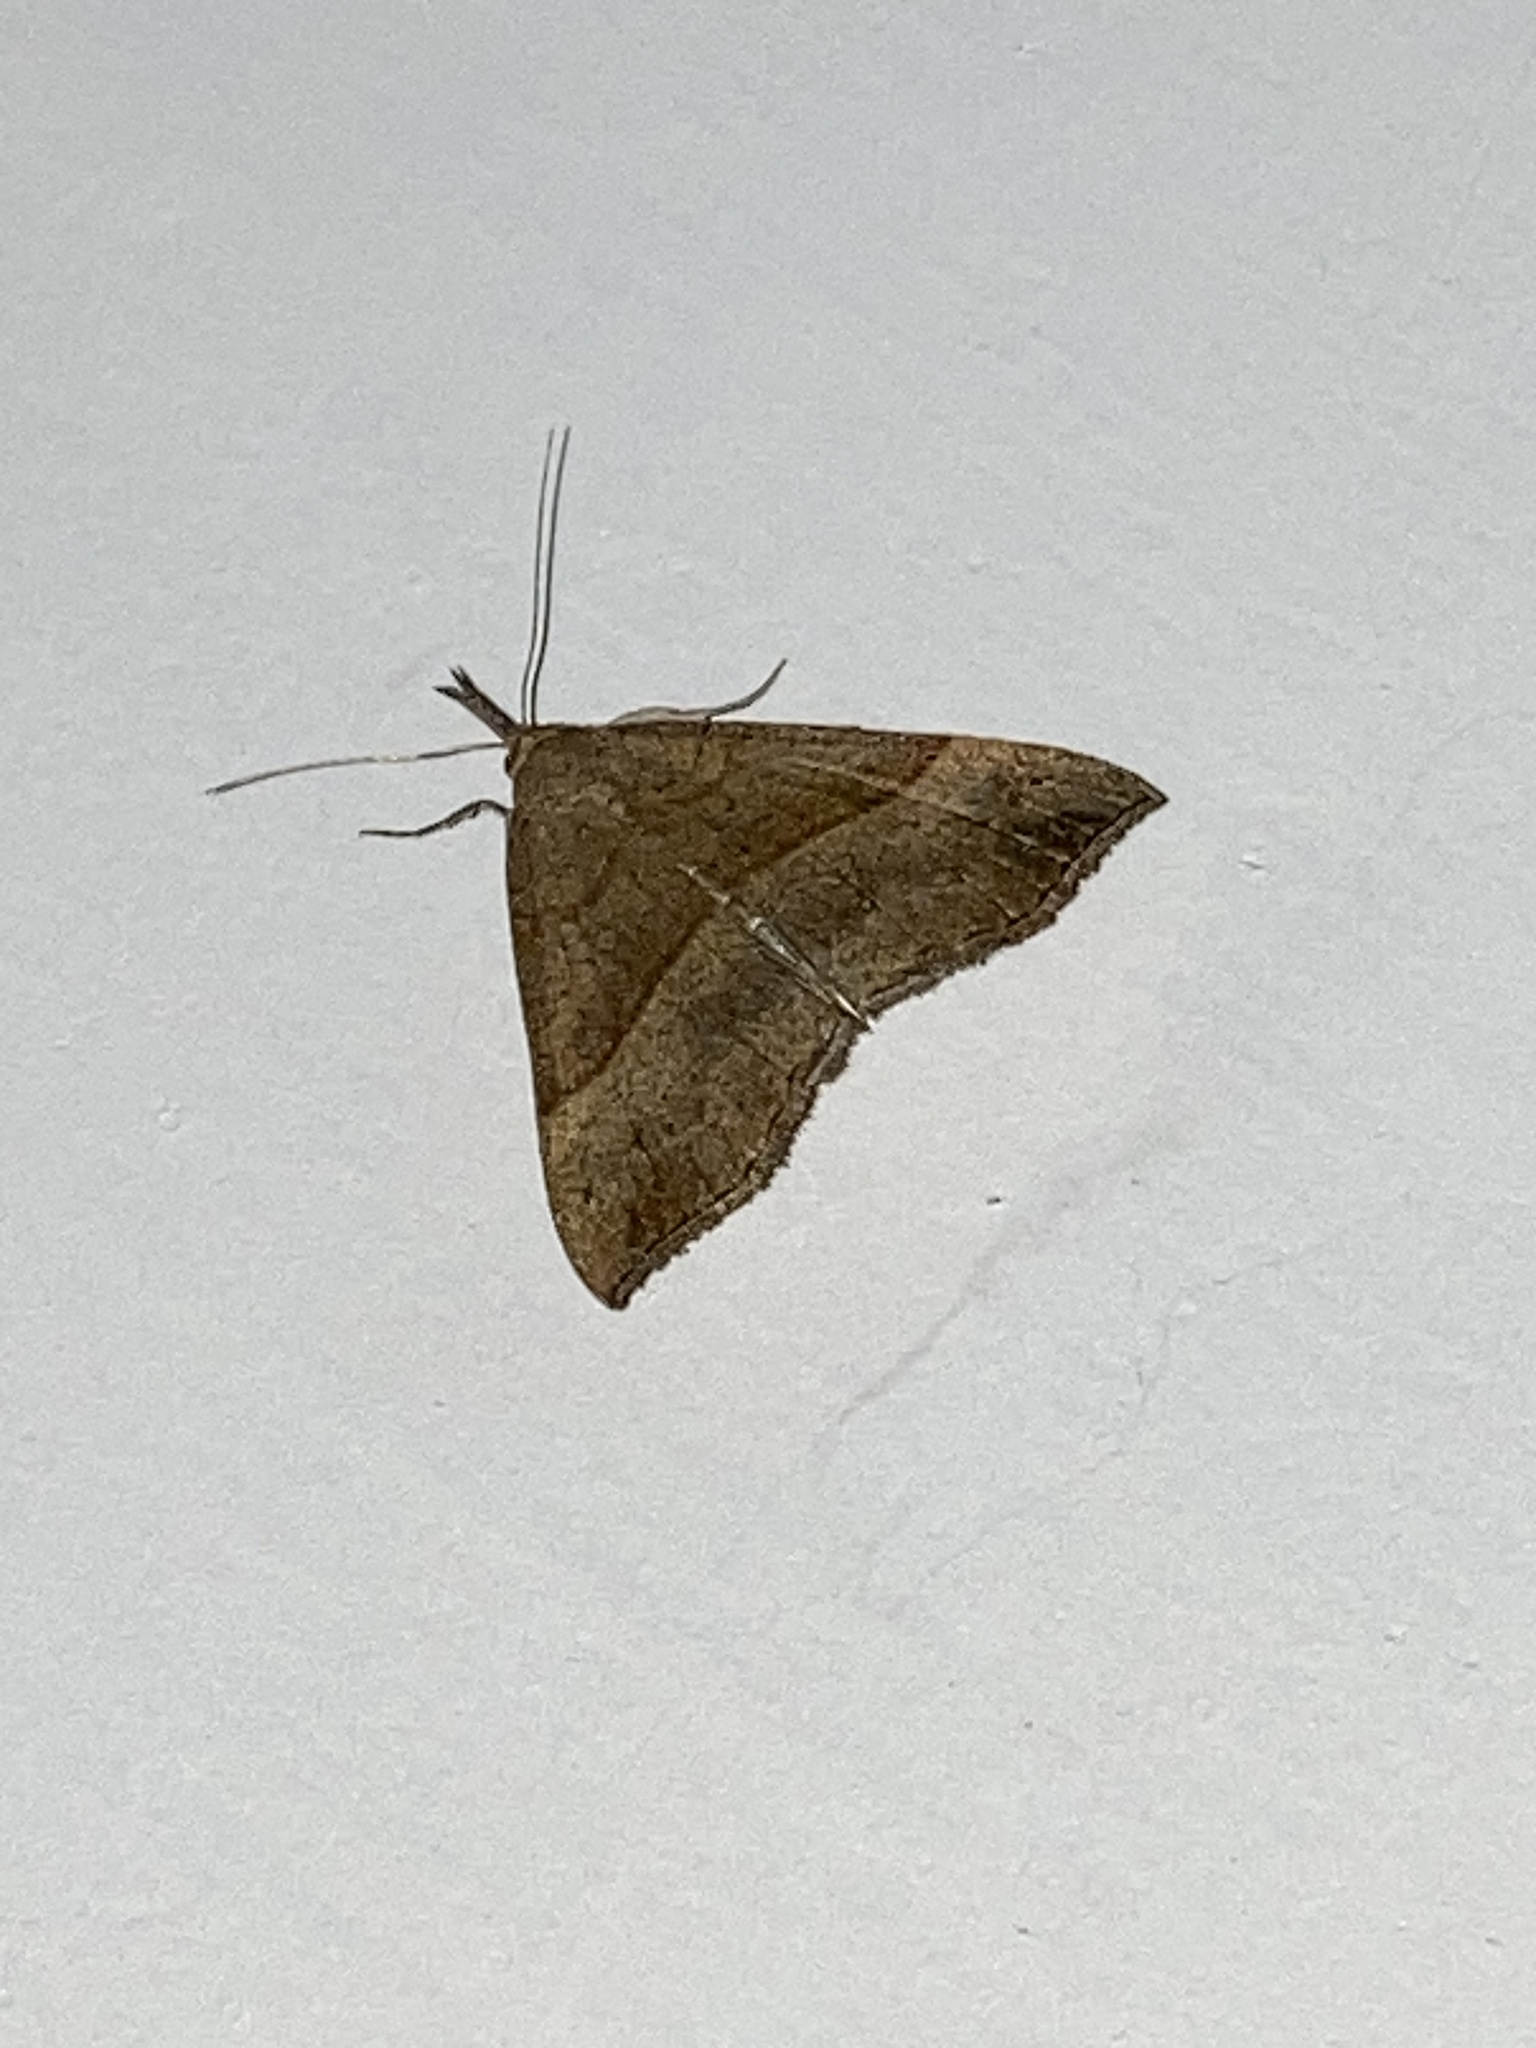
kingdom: Animalia
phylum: Arthropoda
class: Insecta
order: Lepidoptera
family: Erebidae
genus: Hypena
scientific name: Hypena proboscidalis
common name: Snout
